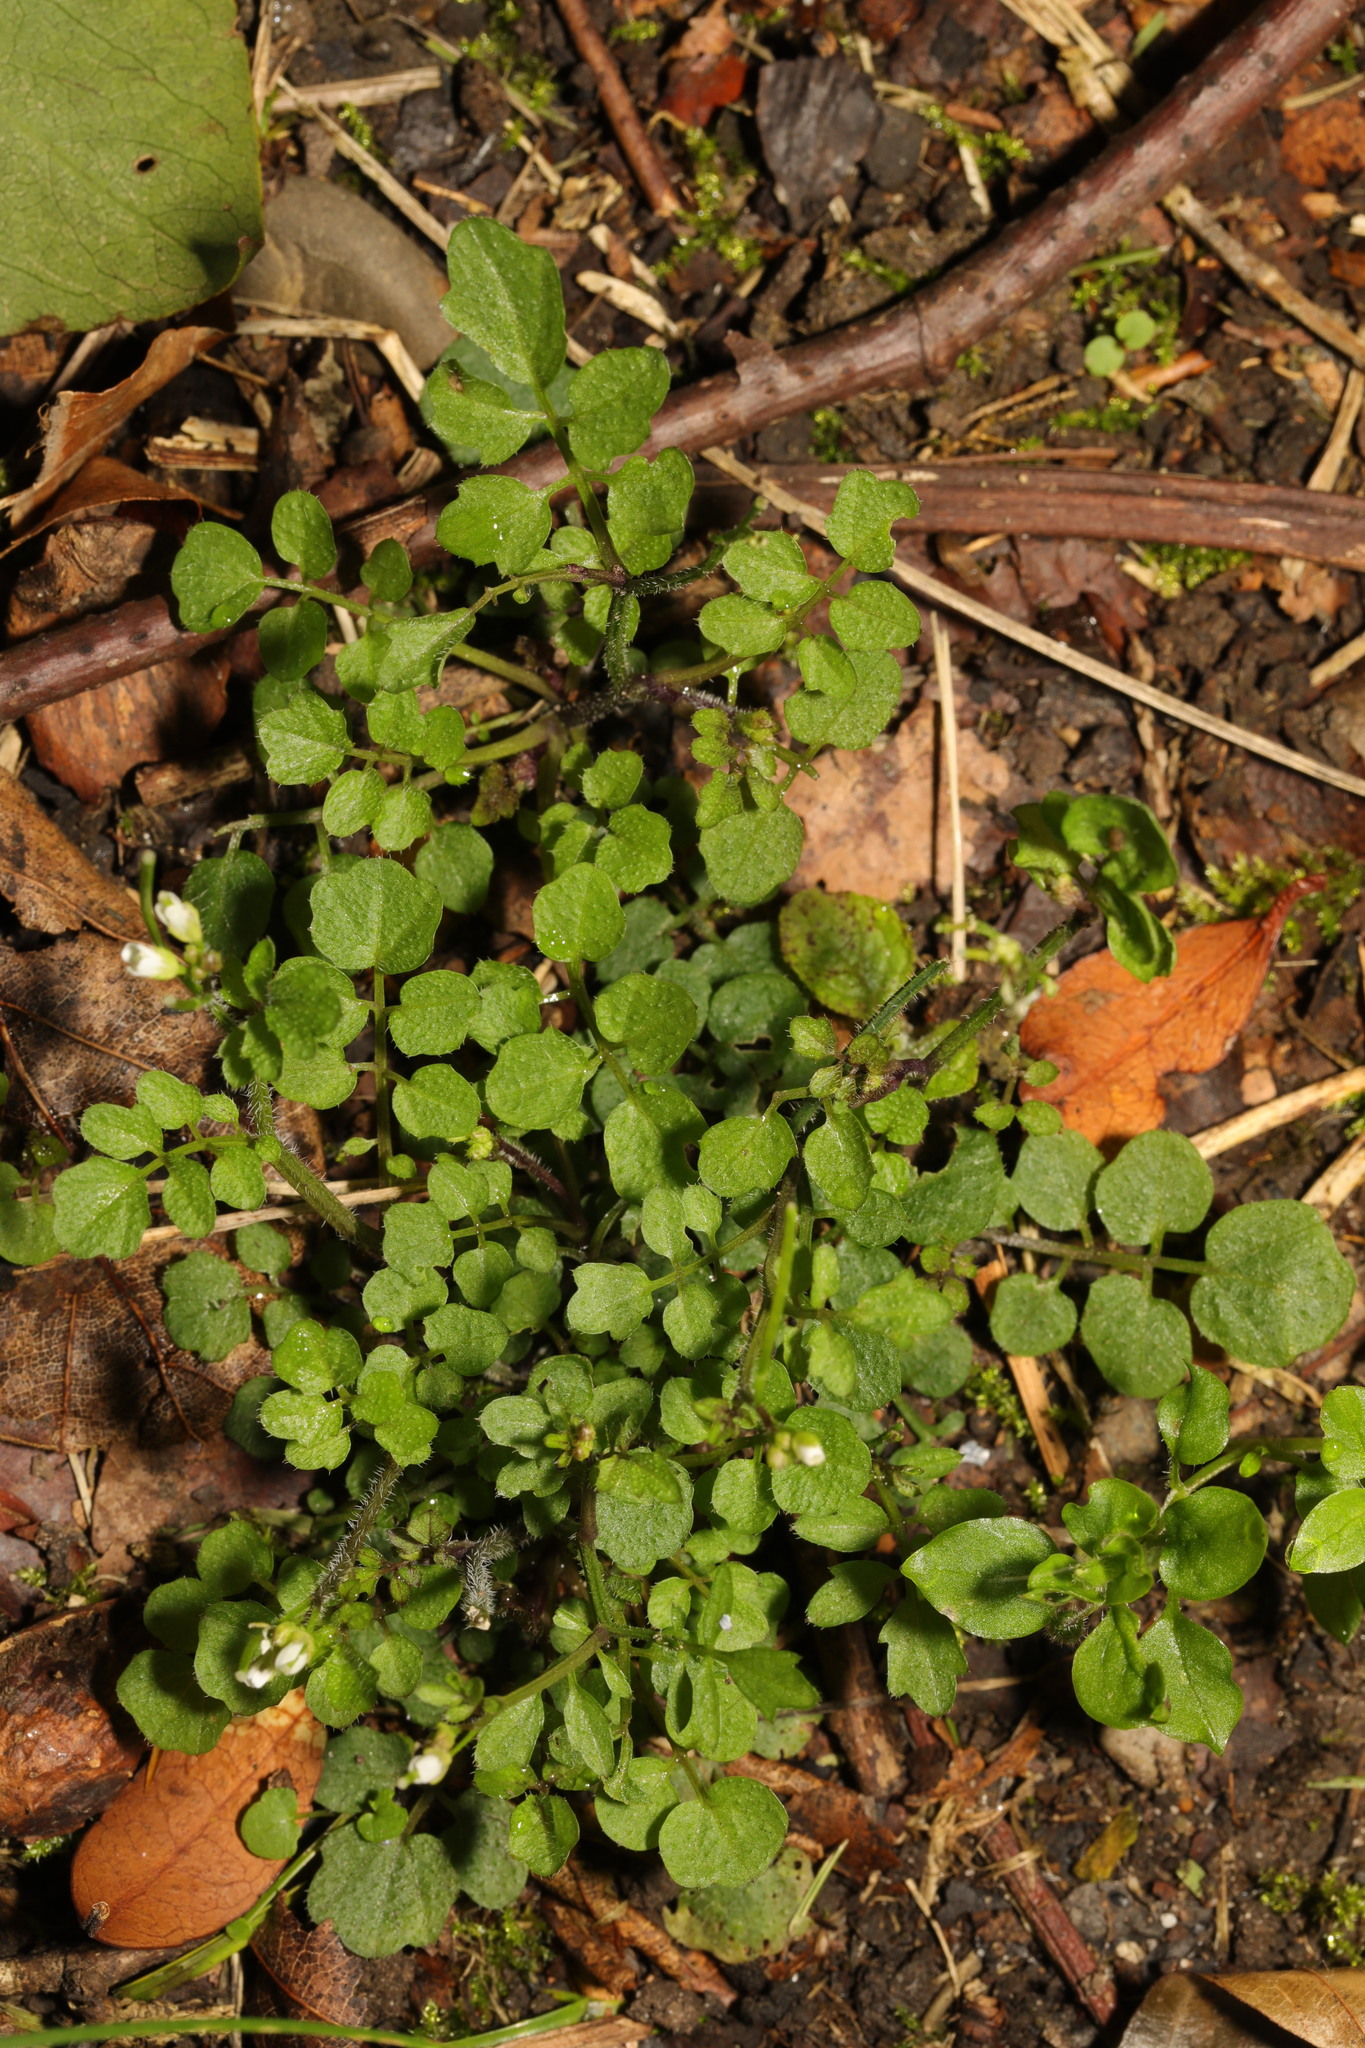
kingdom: Plantae
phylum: Tracheophyta
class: Magnoliopsida
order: Brassicales
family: Brassicaceae
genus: Cardamine
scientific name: Cardamine flexuosa
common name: Woodland bittercress
